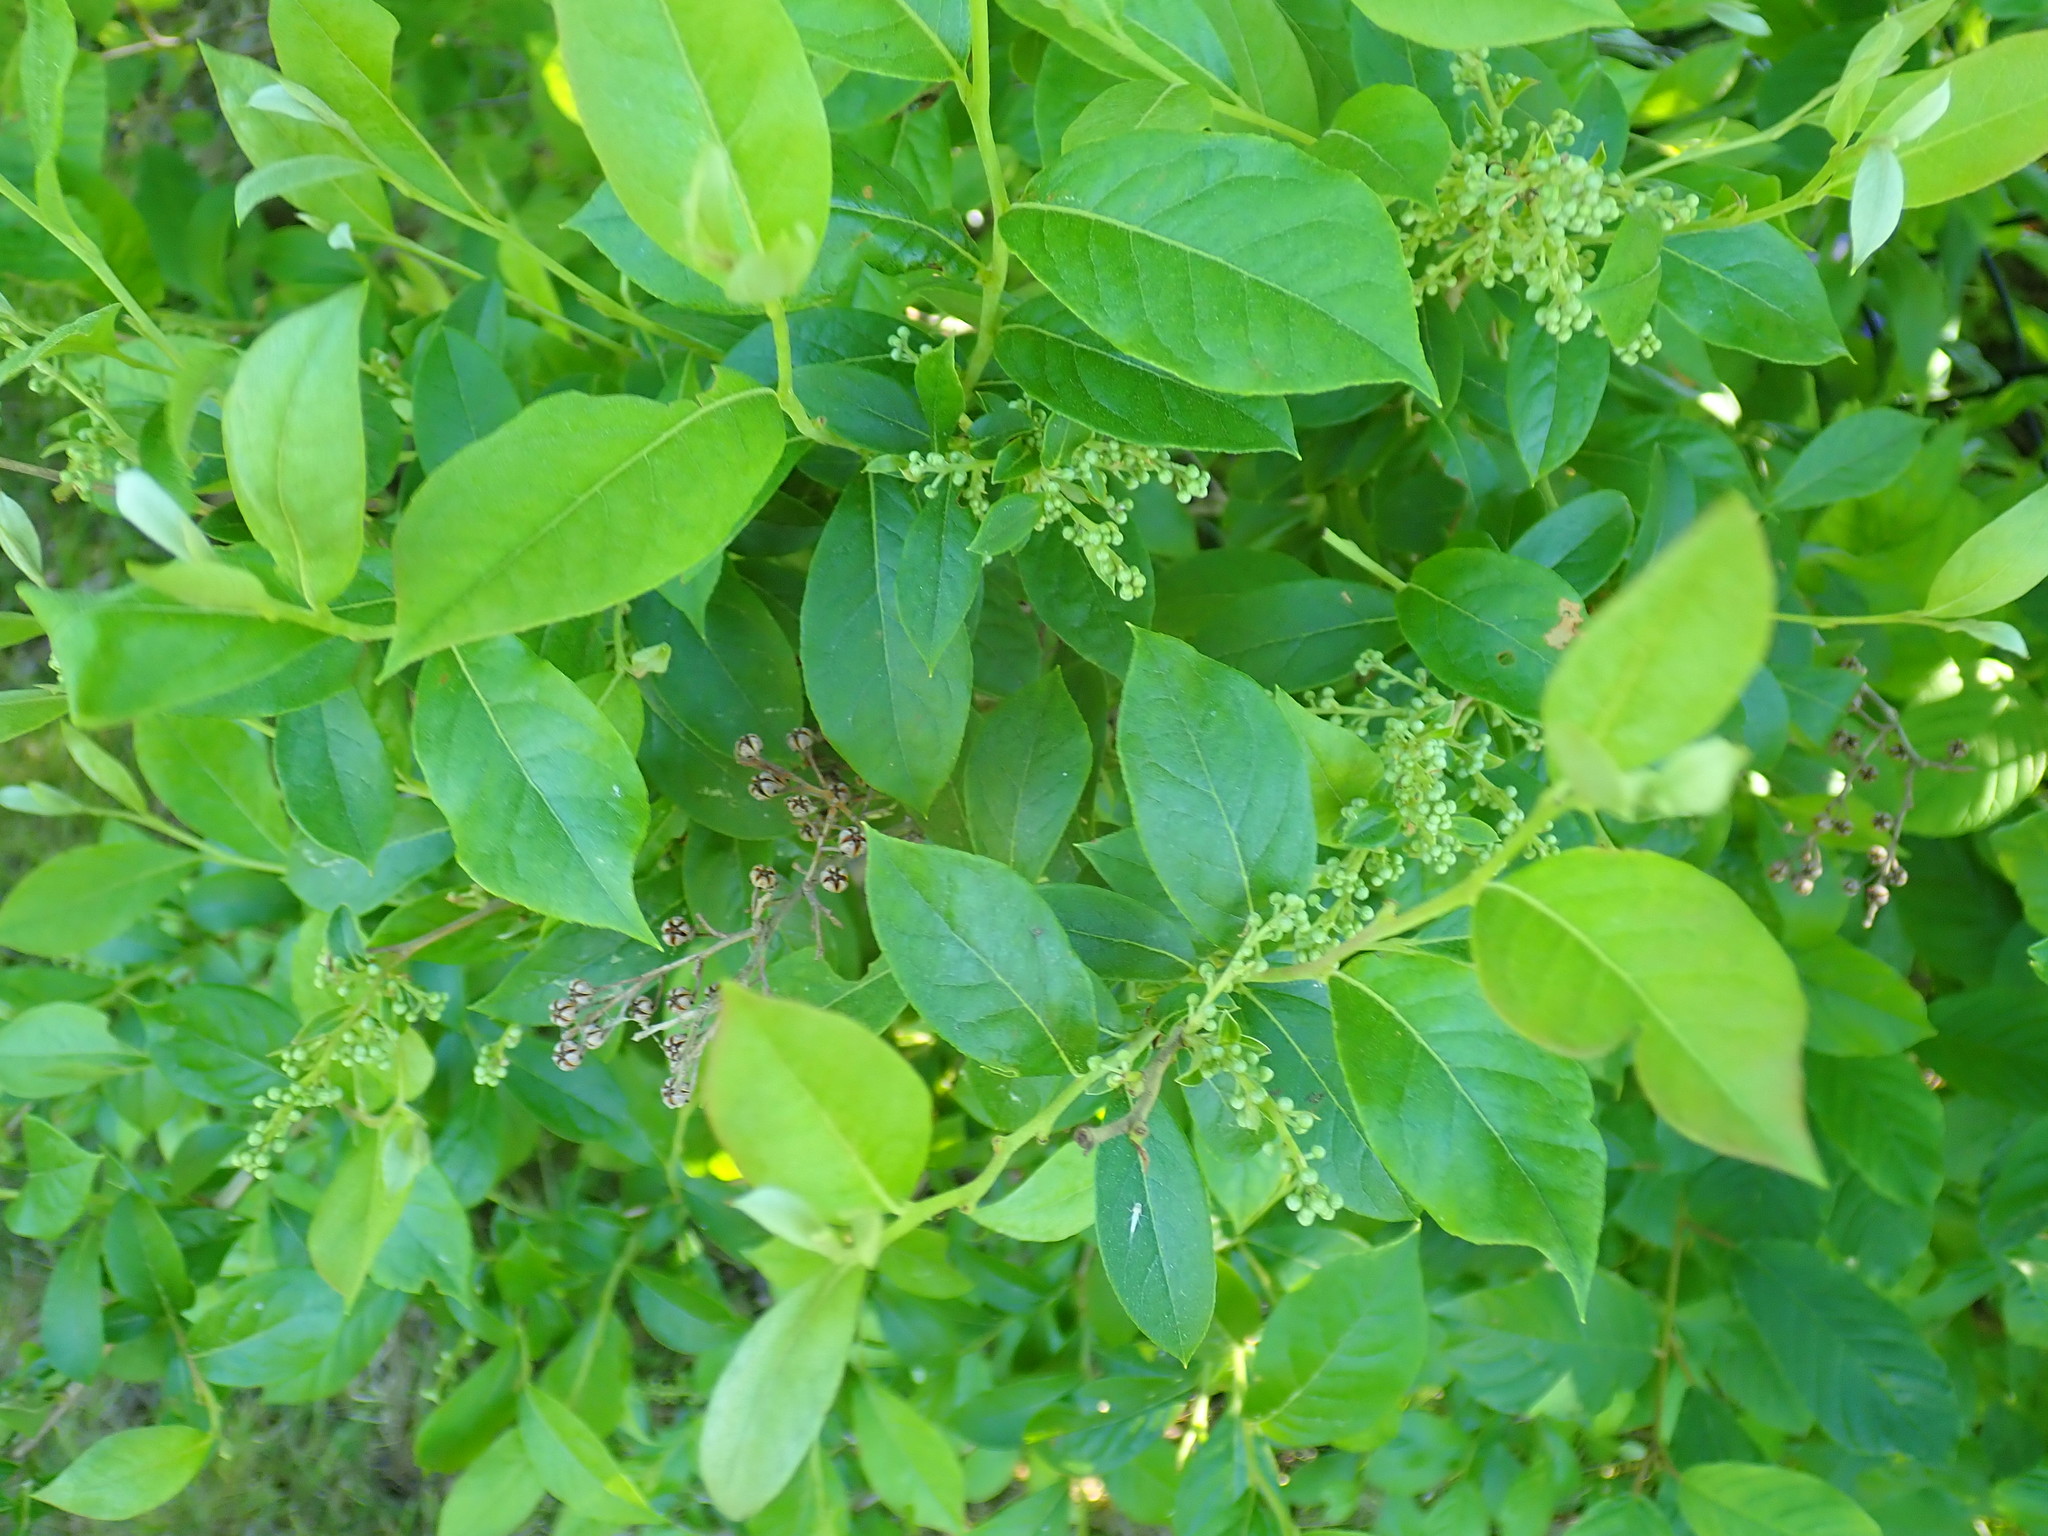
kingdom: Plantae
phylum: Tracheophyta
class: Magnoliopsida
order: Ericales
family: Ericaceae
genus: Lyonia
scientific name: Lyonia ligustrina
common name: Maleberry
